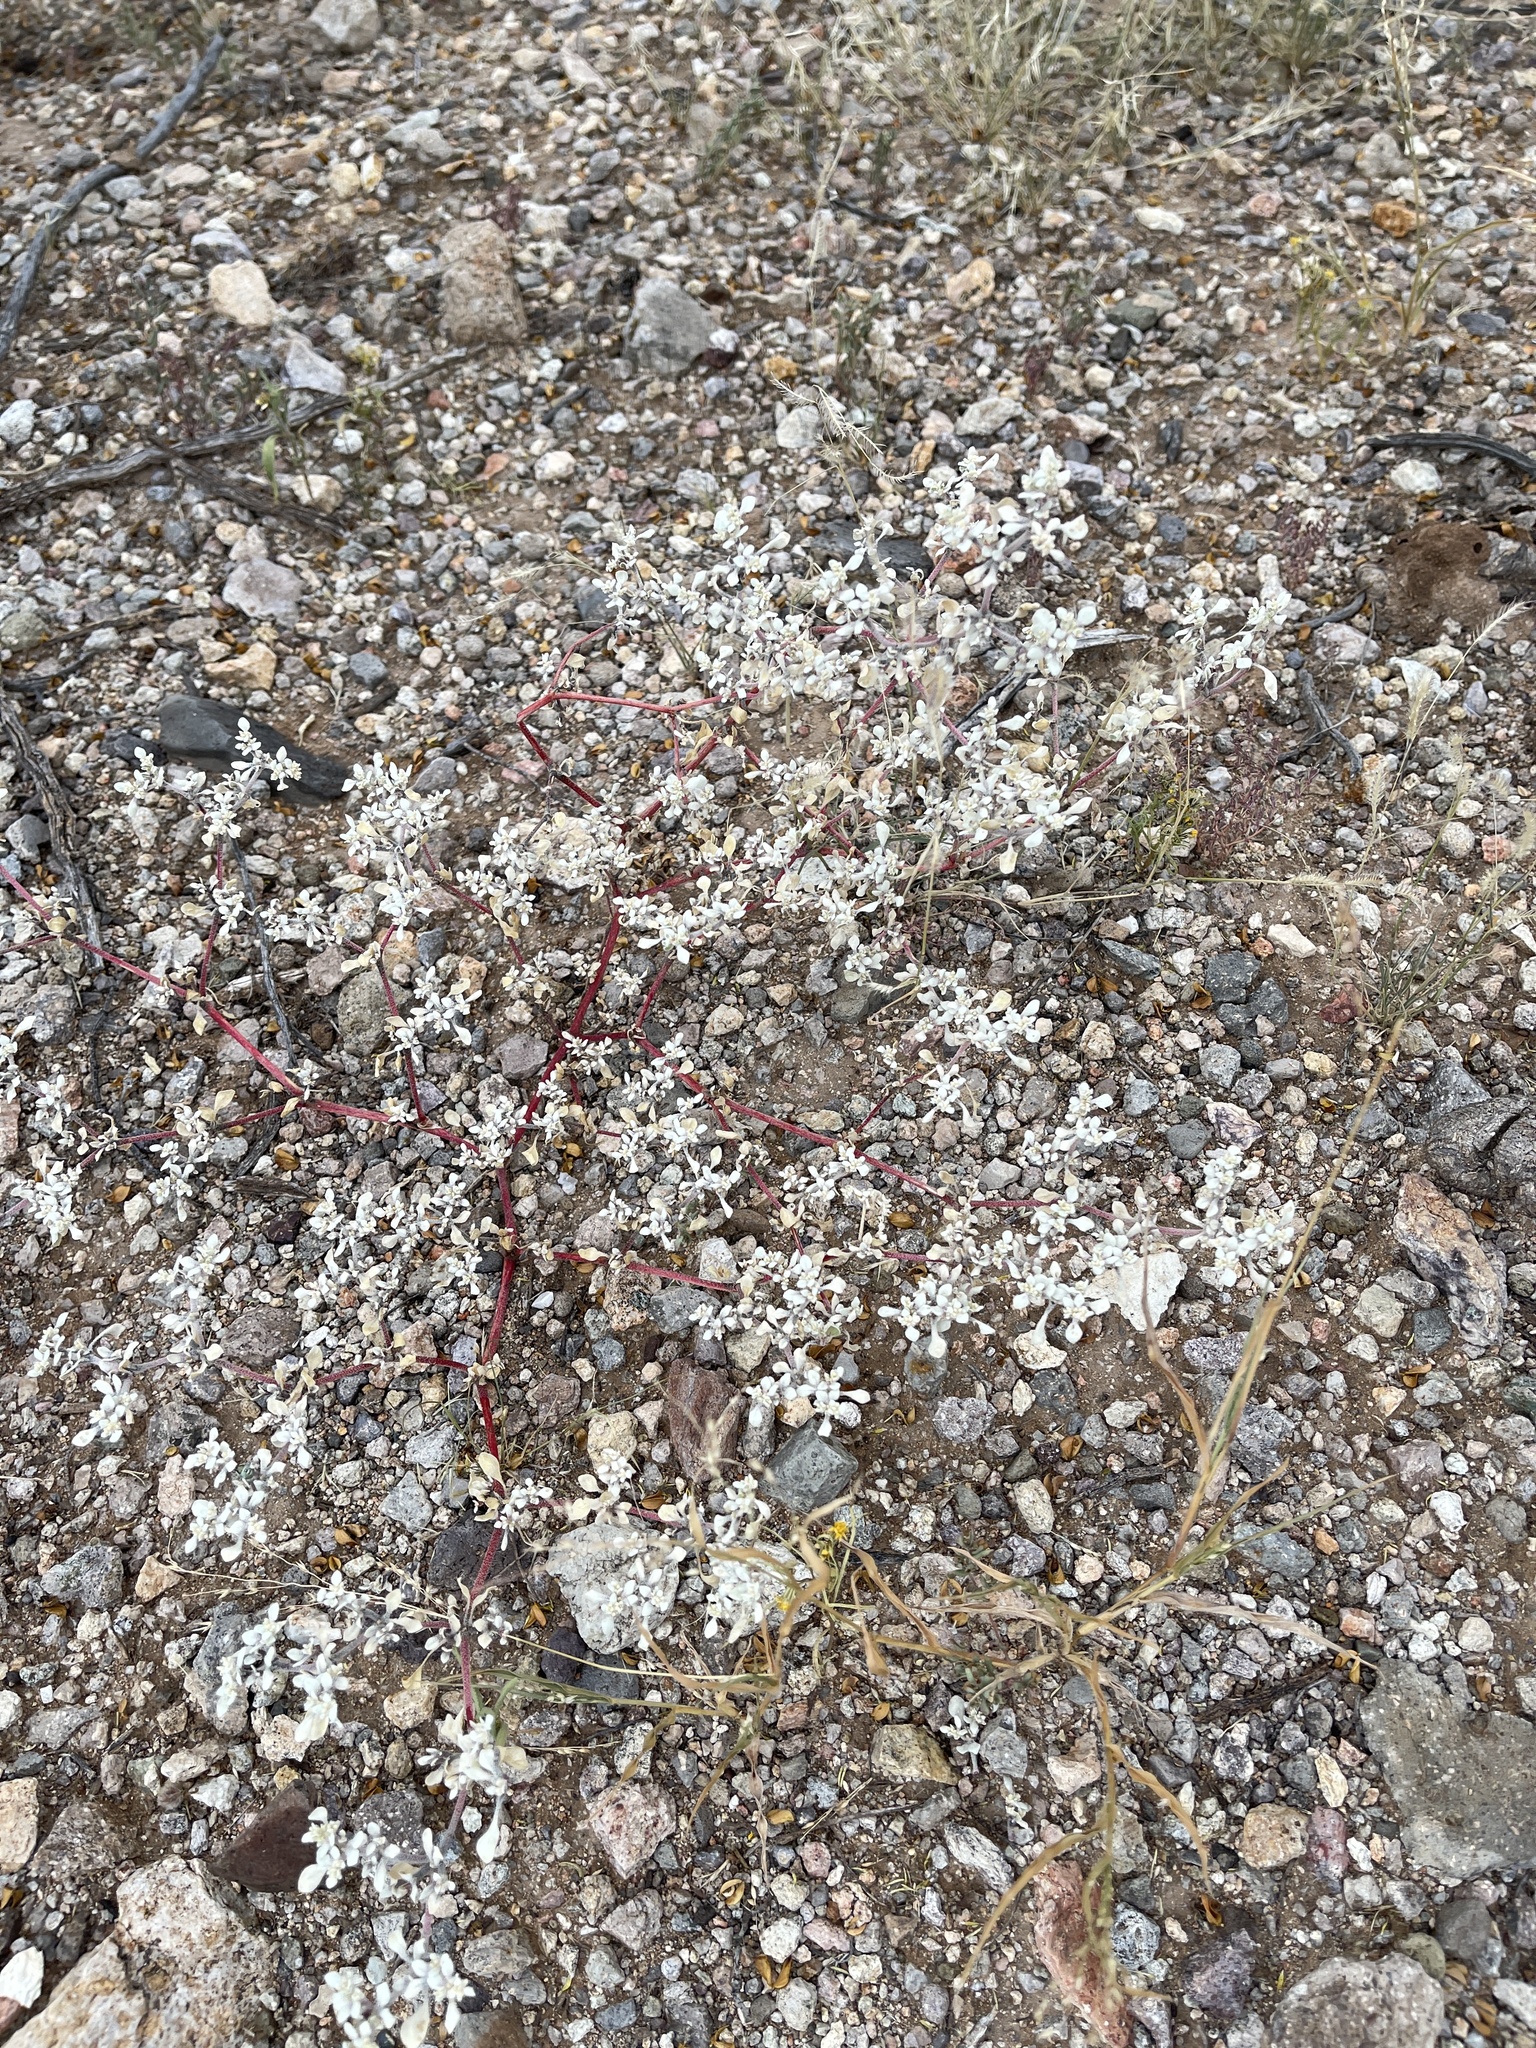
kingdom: Plantae
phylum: Tracheophyta
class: Magnoliopsida
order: Caryophyllales
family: Amaranthaceae
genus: Tidestromia
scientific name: Tidestromia lanuginosa
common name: Woolly tidestromia
